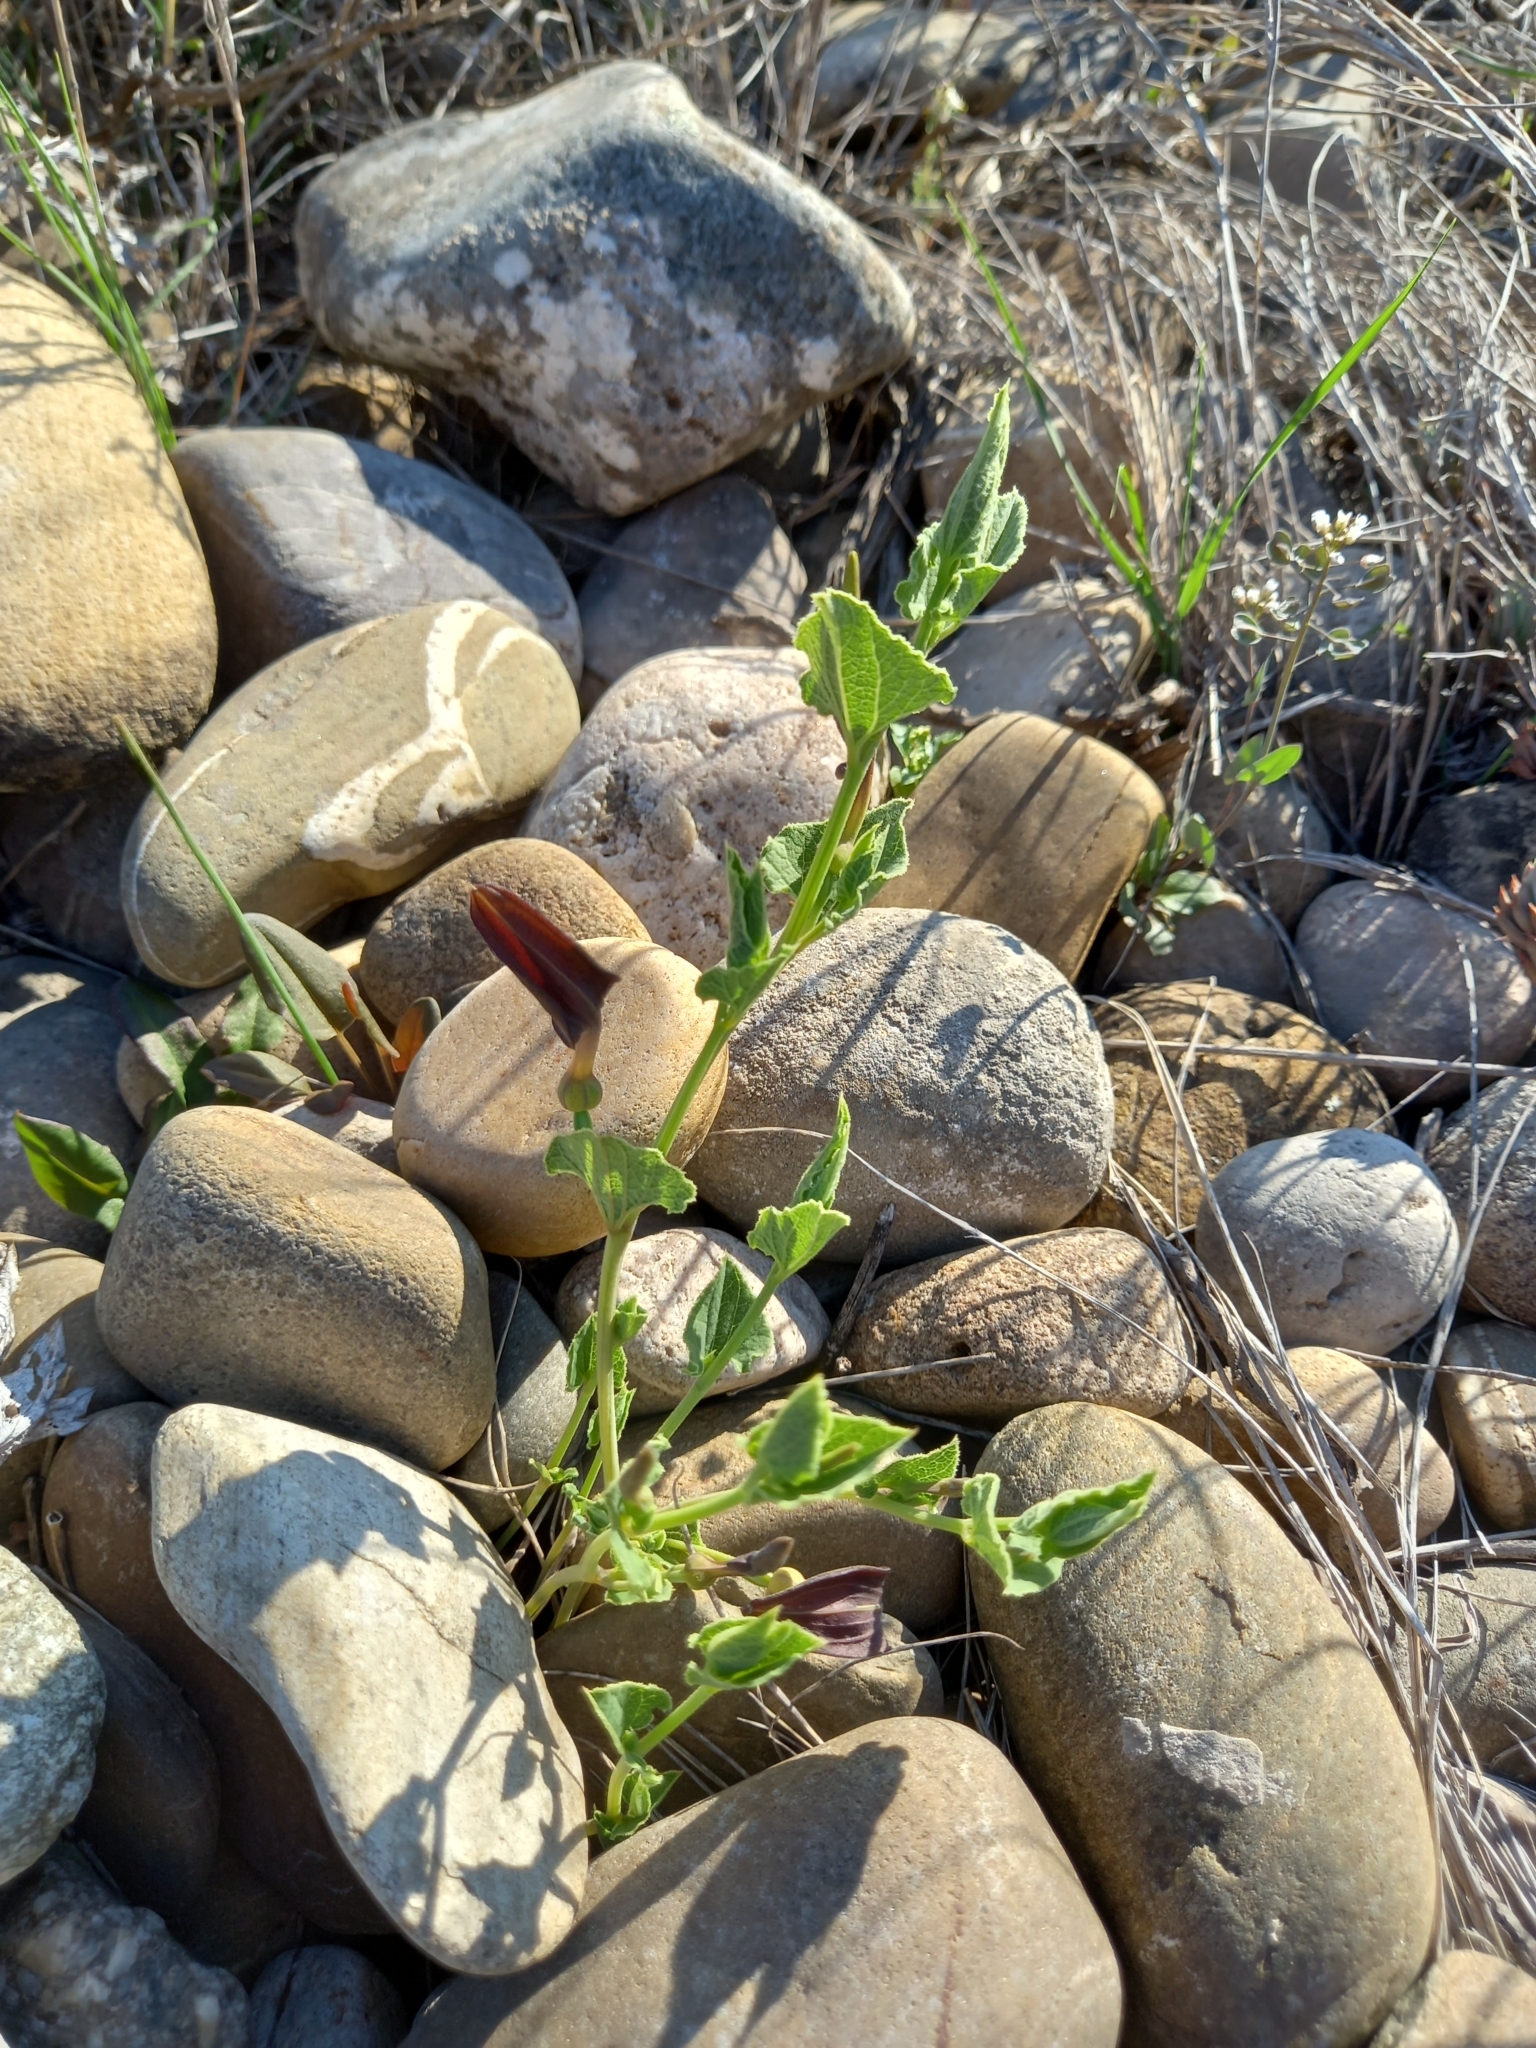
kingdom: Plantae
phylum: Tracheophyta
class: Magnoliopsida
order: Piperales
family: Aristolochiaceae
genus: Aristolochia
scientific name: Aristolochia pistolochia
